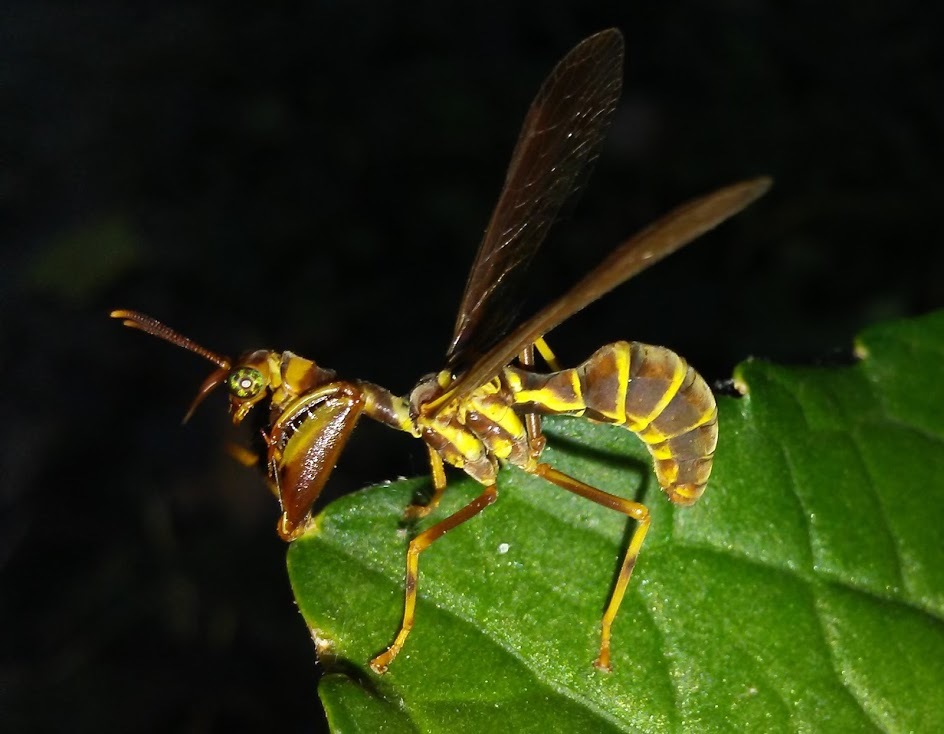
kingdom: Animalia
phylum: Arthropoda
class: Insecta
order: Neuroptera
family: Mantispidae
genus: Climaciella
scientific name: Climaciella brunnea
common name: Brown wasp mantidfly
